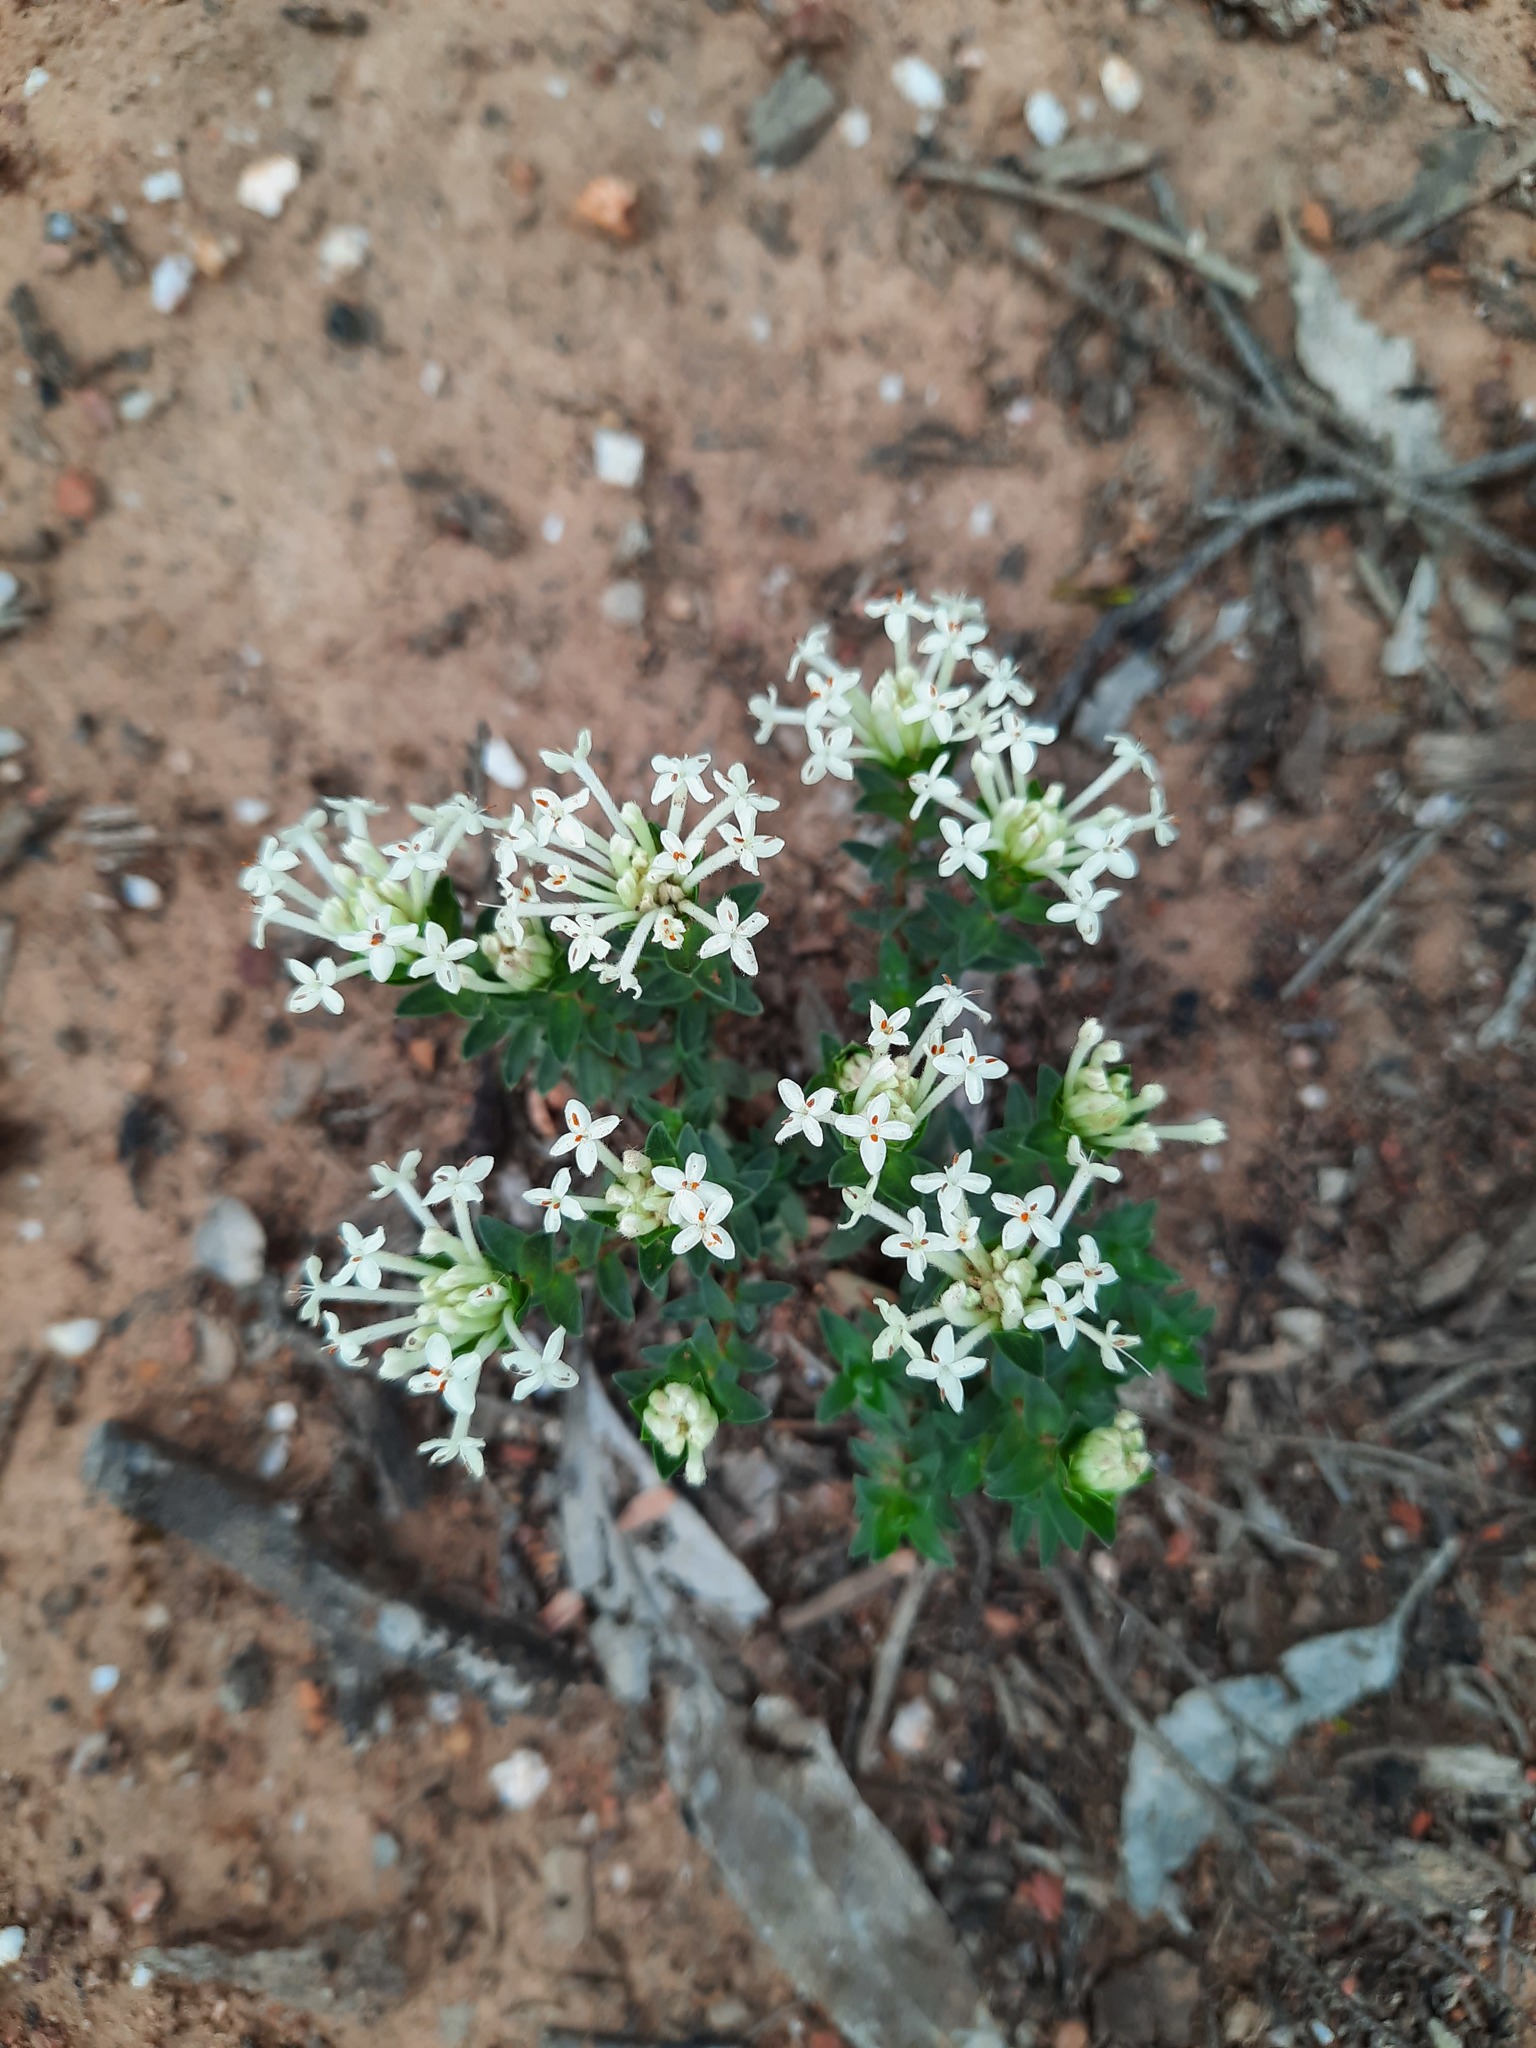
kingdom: Plantae
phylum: Tracheophyta
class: Magnoliopsida
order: Malvales
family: Thymelaeaceae
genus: Pimelea
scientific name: Pimelea linifolia
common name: Queen-of-the-bush
